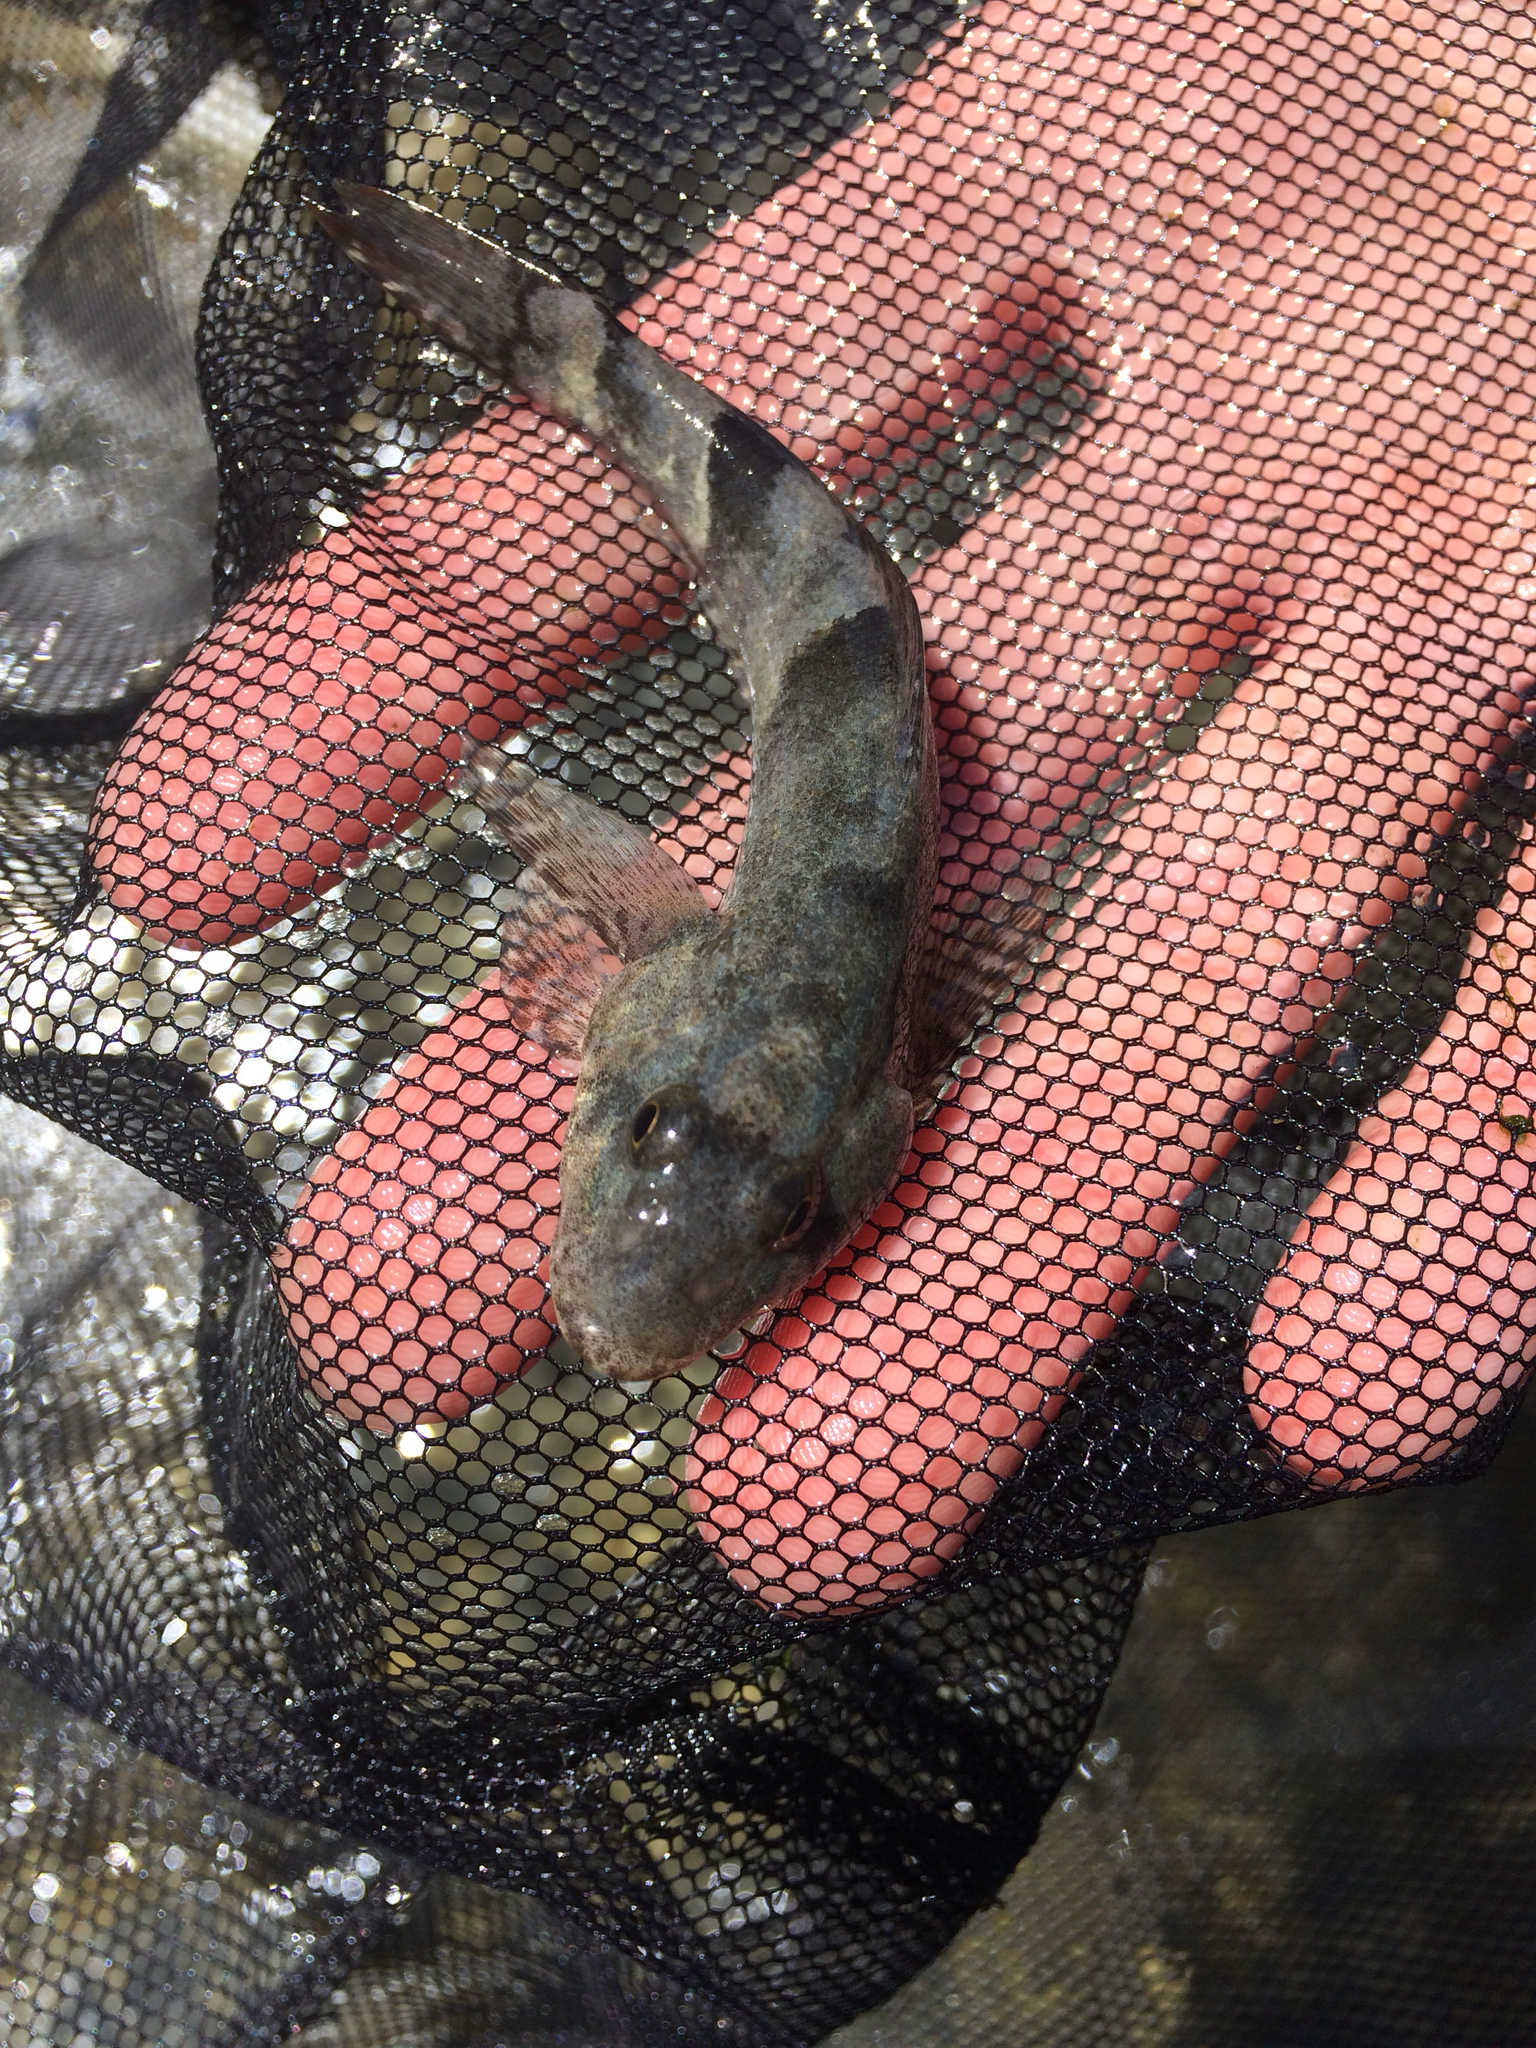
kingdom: Animalia
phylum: Chordata
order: Perciformes
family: Cheimarrichthyidae
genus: Cheimarrichthys
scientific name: Cheimarrichthys fosterae
